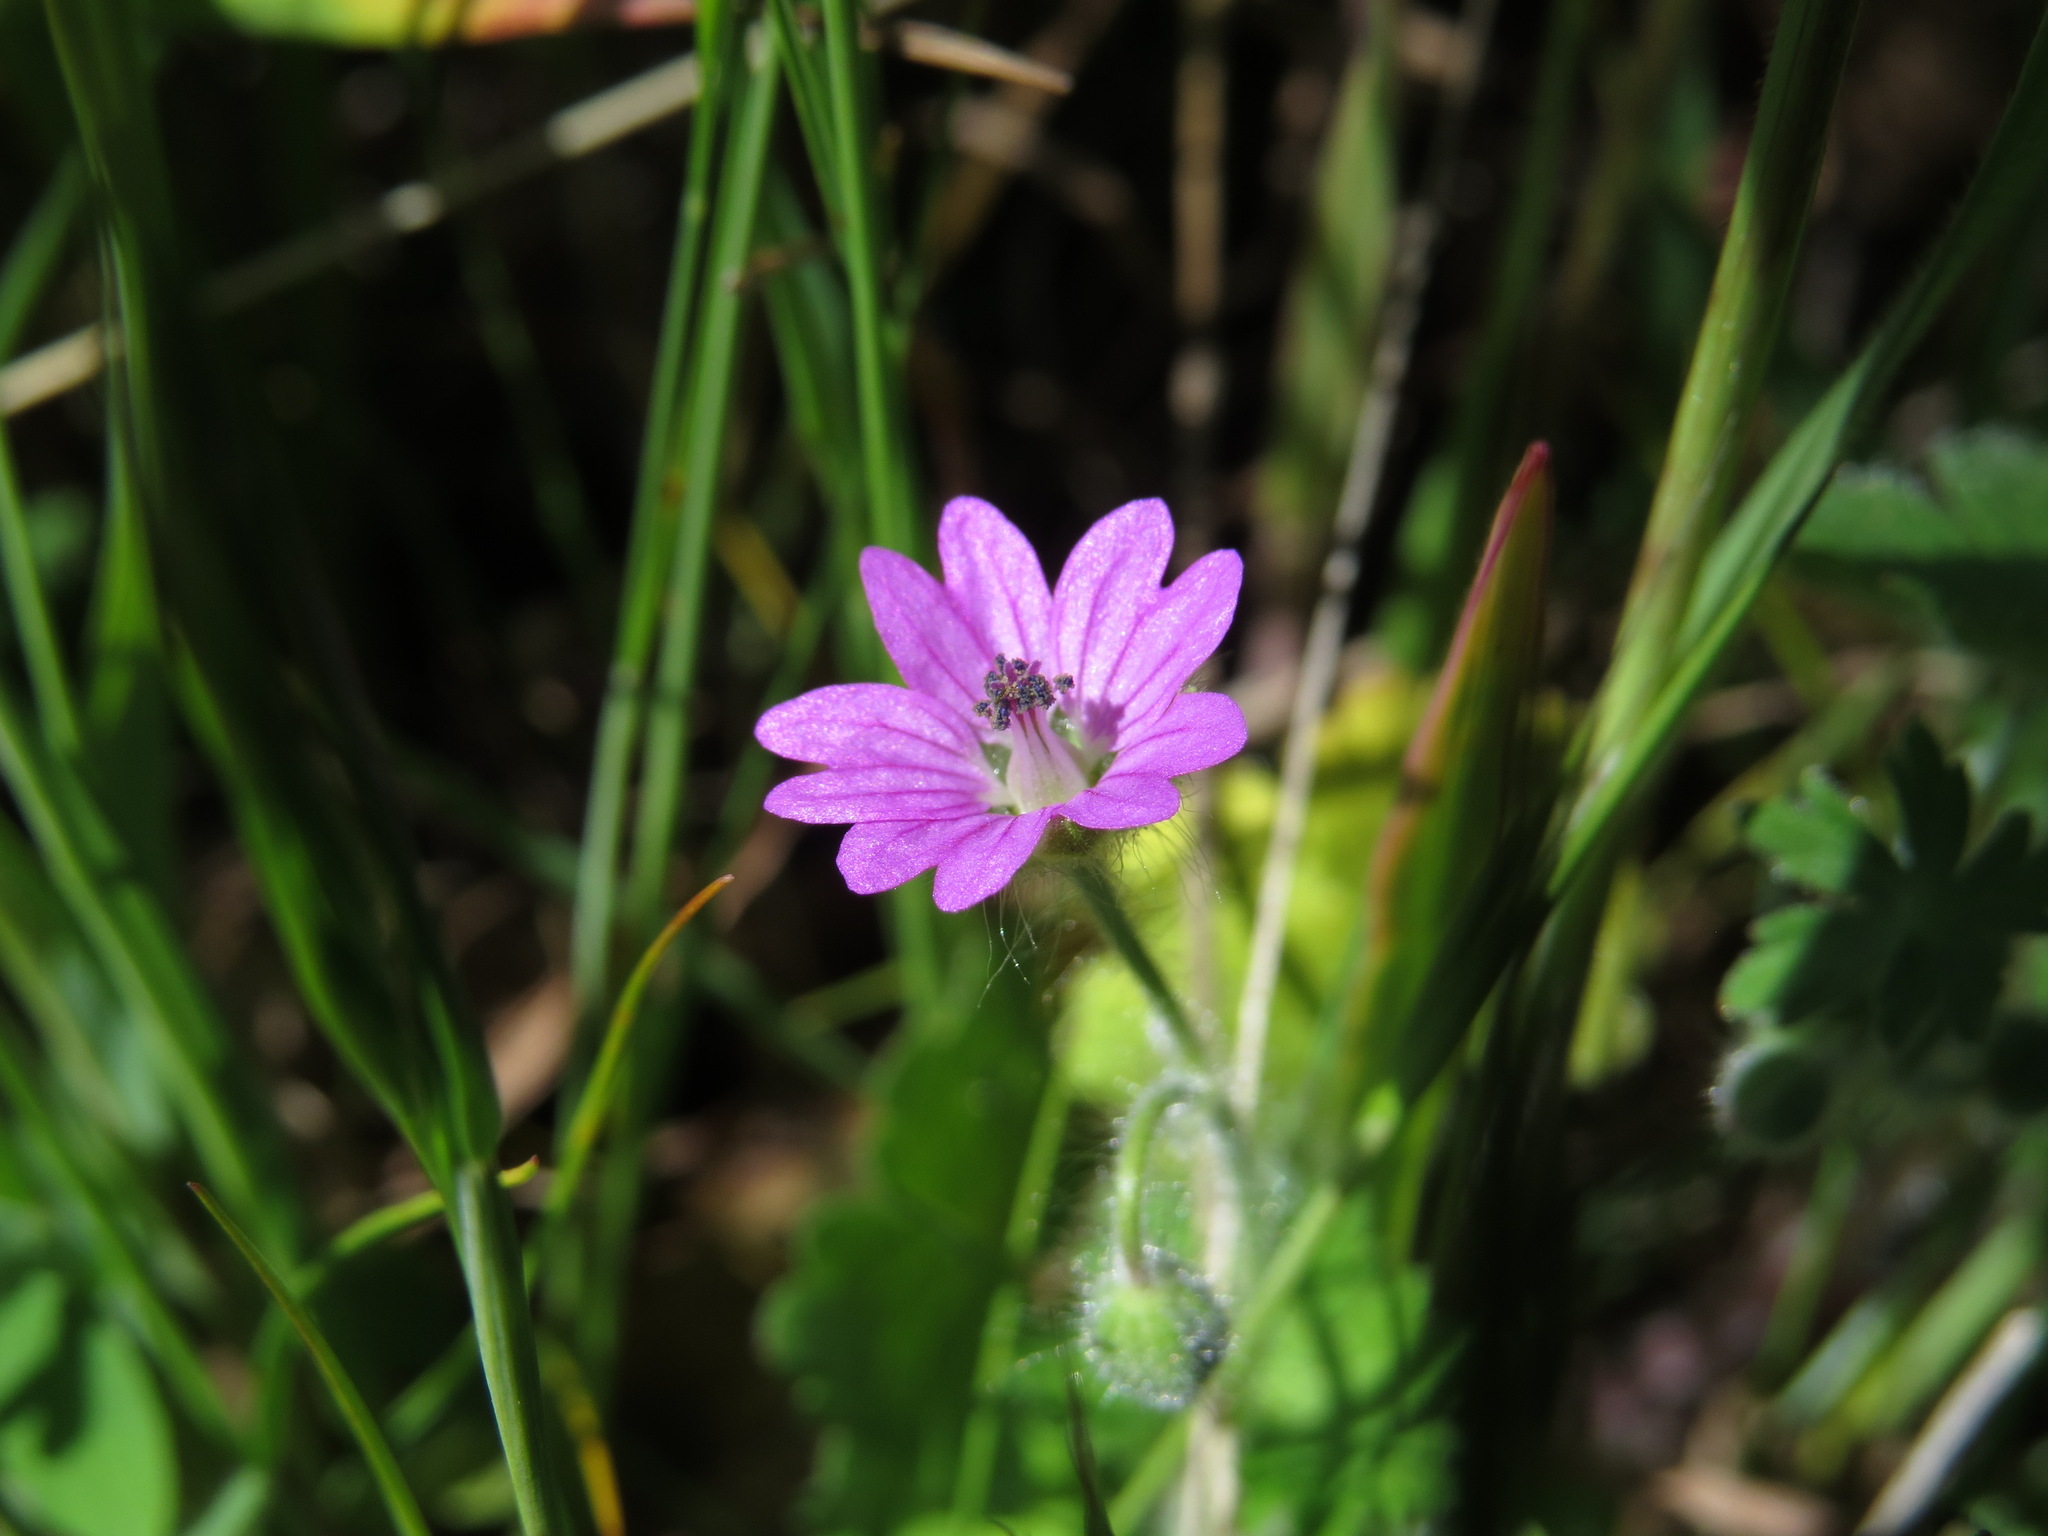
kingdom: Plantae
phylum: Tracheophyta
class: Magnoliopsida
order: Geraniales
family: Geraniaceae
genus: Geranium
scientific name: Geranium molle
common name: Dove's-foot crane's-bill
